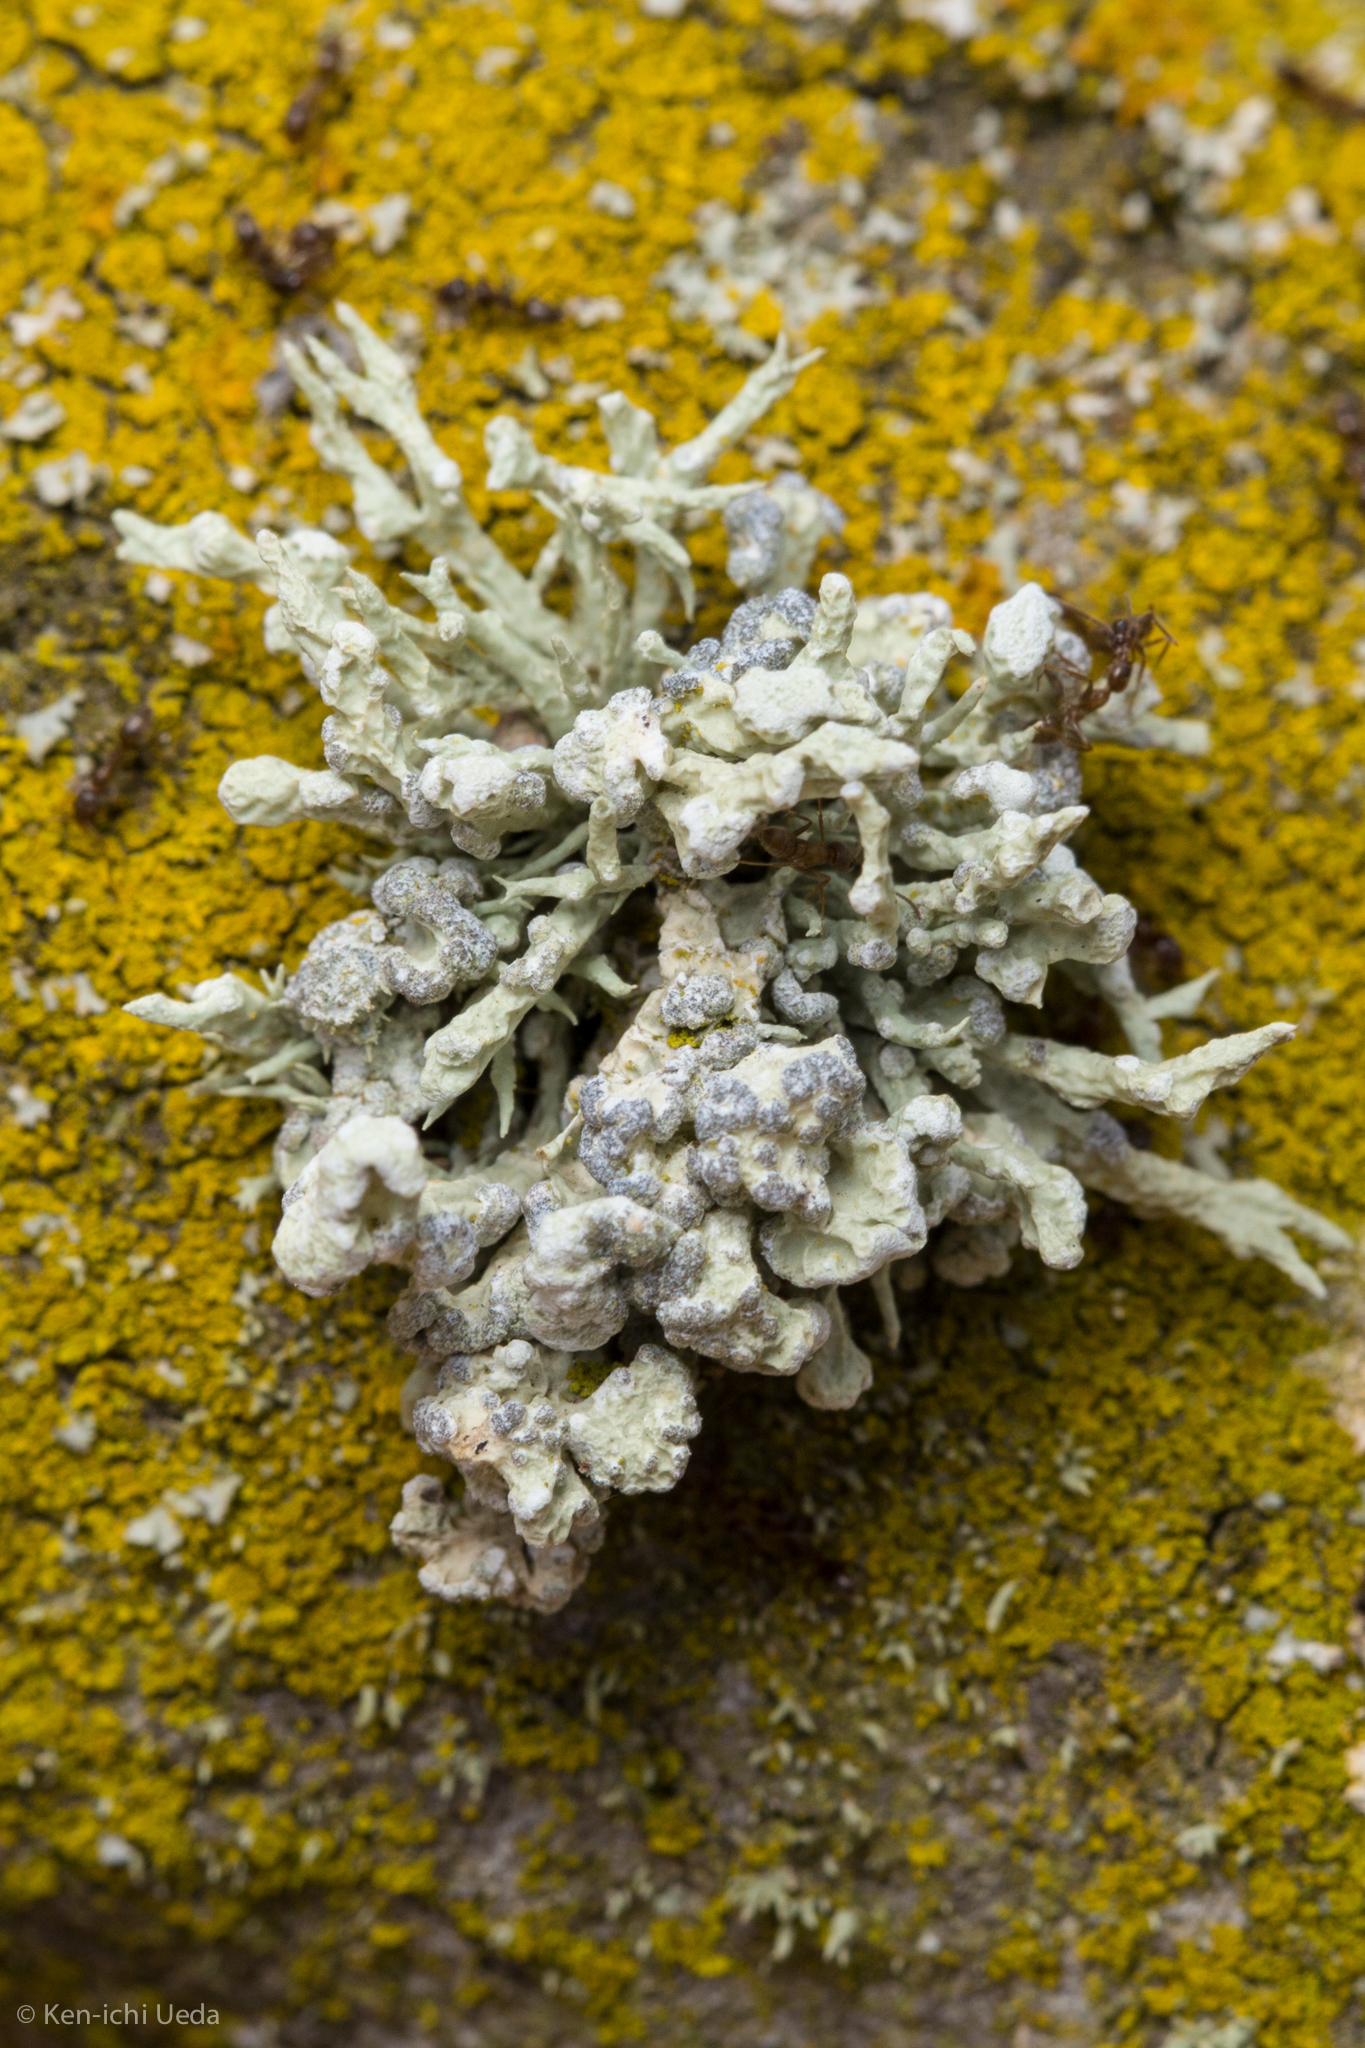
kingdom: Fungi
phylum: Ascomycota
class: Lecanoromycetes
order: Lecanorales
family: Ramalinaceae
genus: Niebla
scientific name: Niebla cephalota
